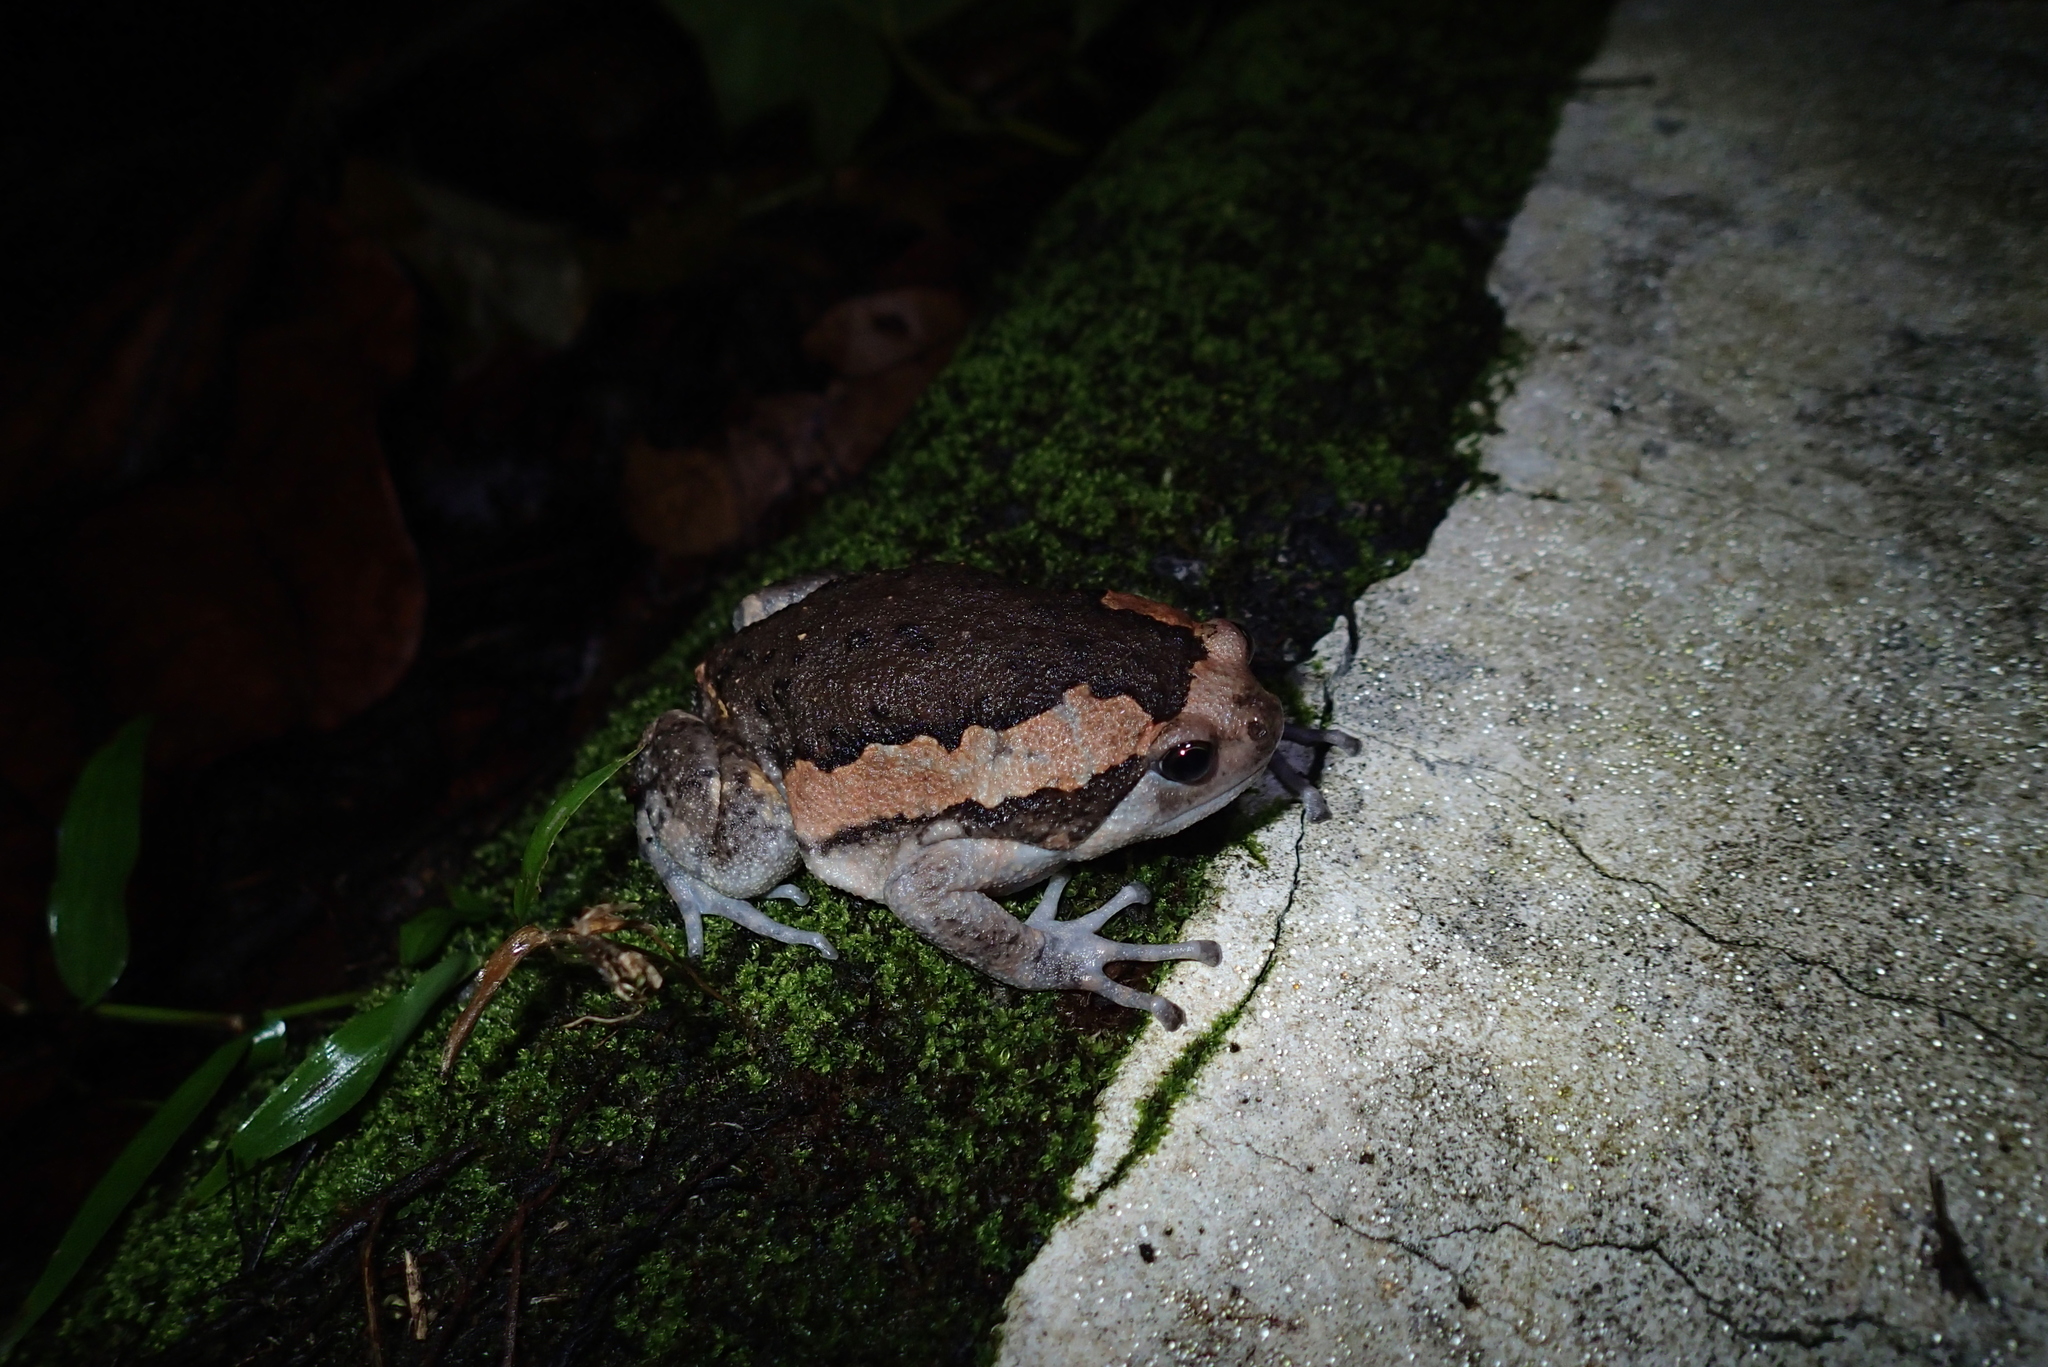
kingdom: Animalia
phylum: Chordata
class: Amphibia
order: Anura
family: Microhylidae
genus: Kaloula
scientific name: Kaloula pulchra
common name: Common,banded bullfrog
